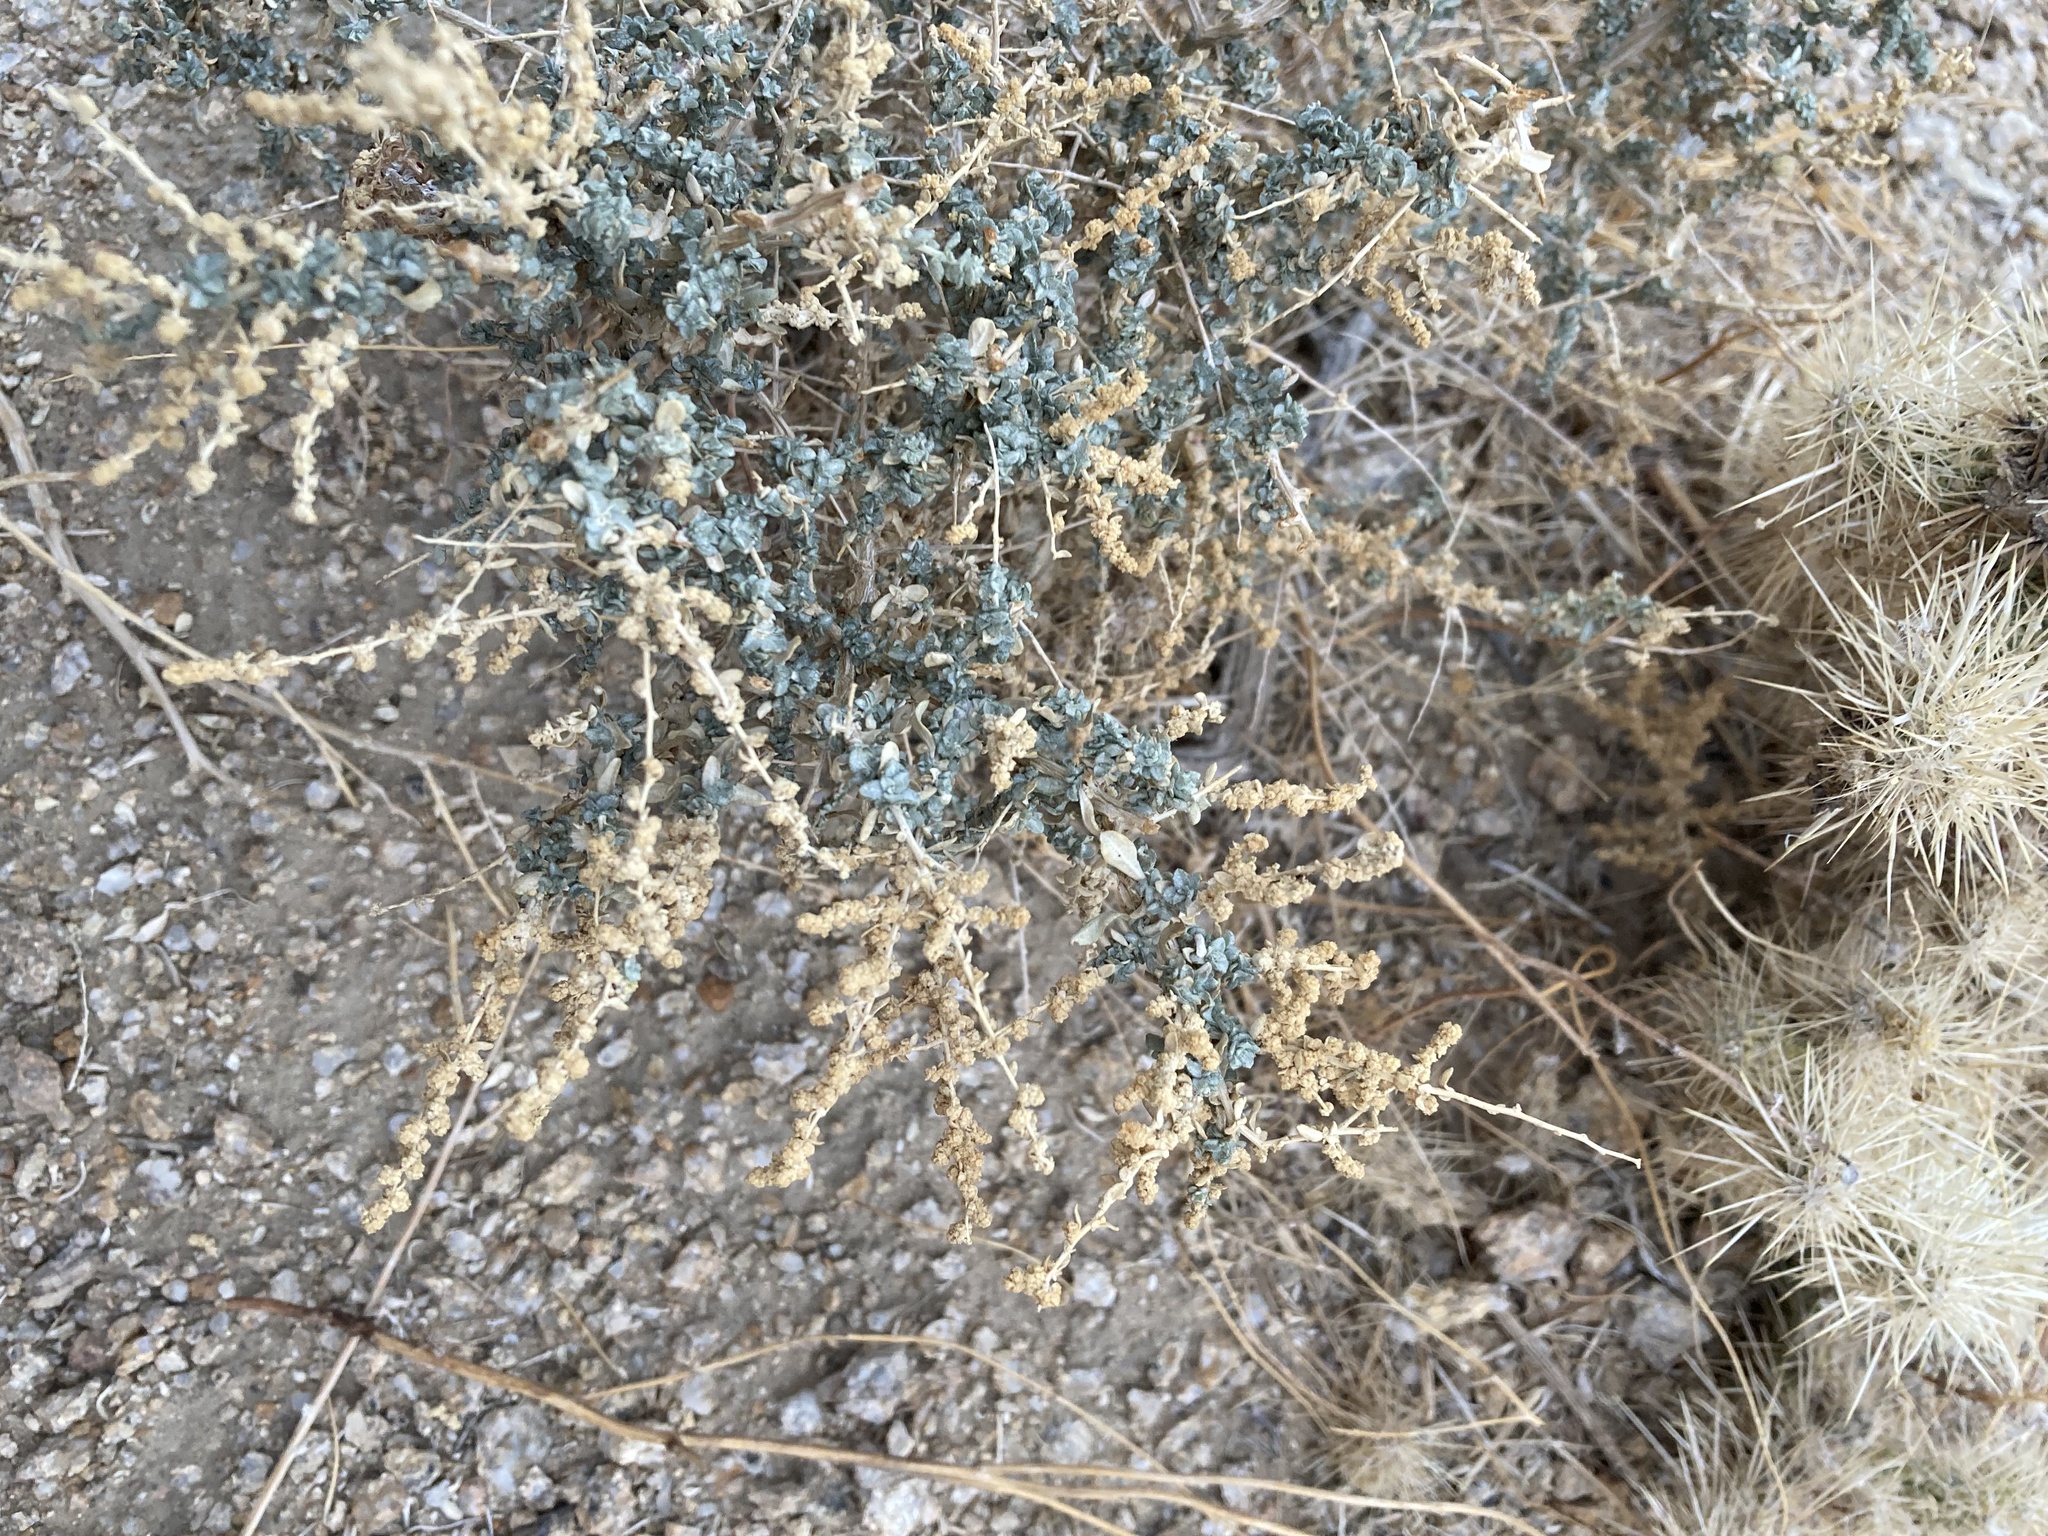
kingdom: Plantae
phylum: Tracheophyta
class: Magnoliopsida
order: Caryophyllales
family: Amaranthaceae
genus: Atriplex
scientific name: Atriplex polycarpa
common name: Desert saltbush
